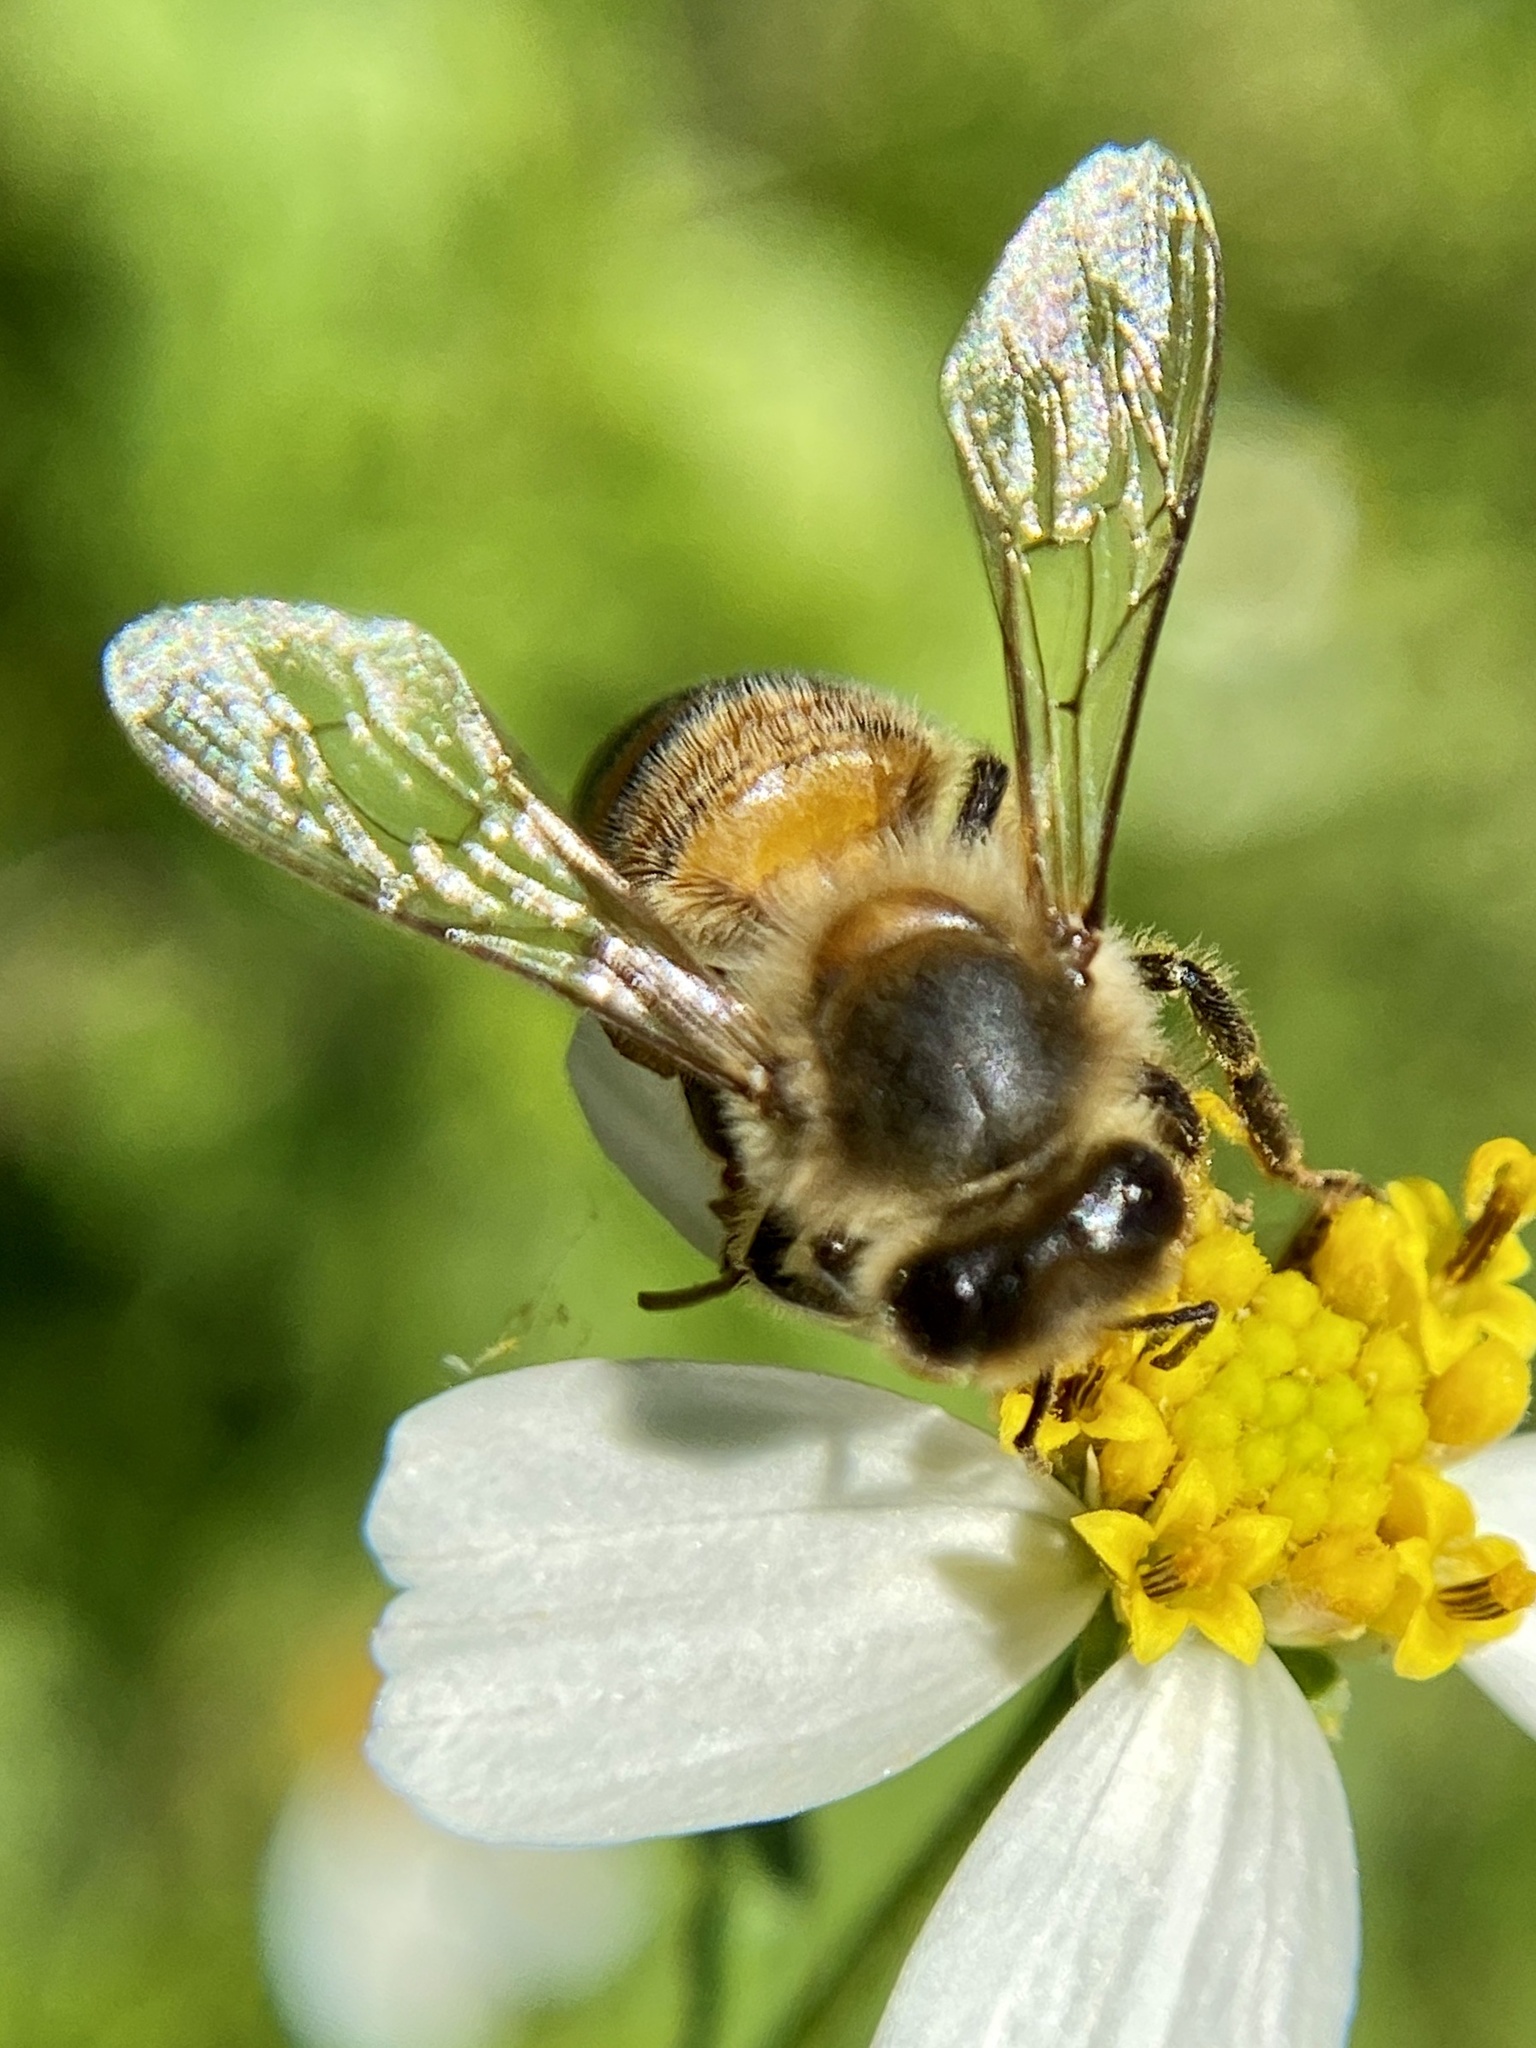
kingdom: Animalia
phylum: Arthropoda
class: Insecta
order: Hymenoptera
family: Apidae
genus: Apis
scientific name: Apis mellifera
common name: Honey bee
